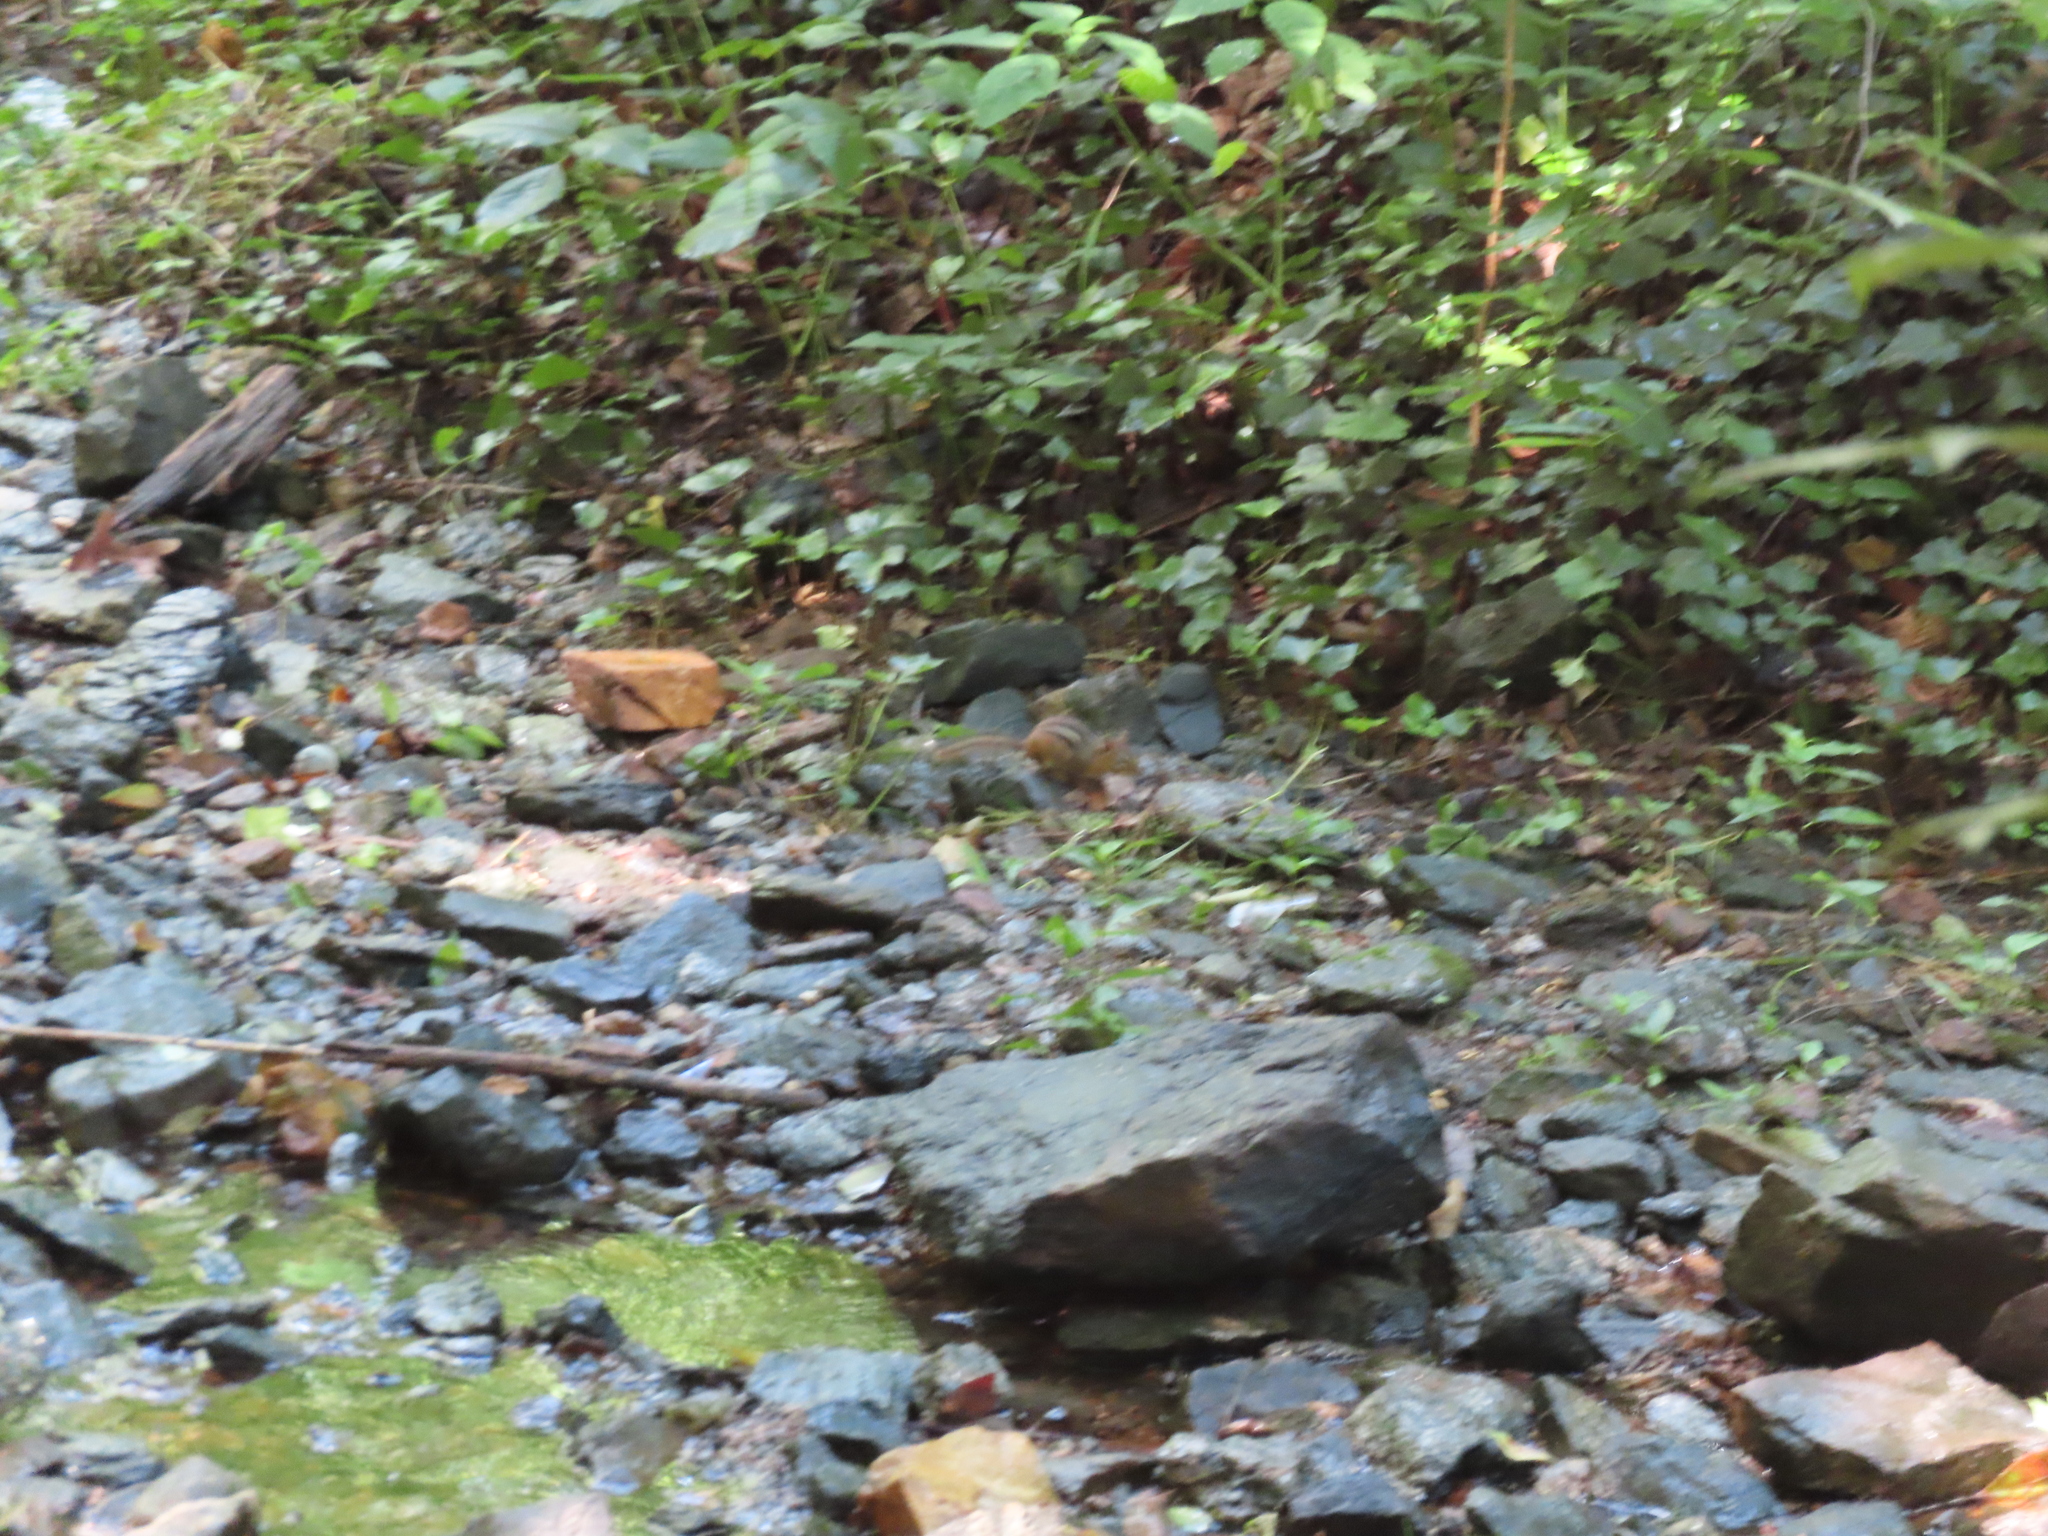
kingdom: Animalia
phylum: Chordata
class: Mammalia
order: Rodentia
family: Sciuridae
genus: Tamias
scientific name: Tamias striatus
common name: Eastern chipmunk
